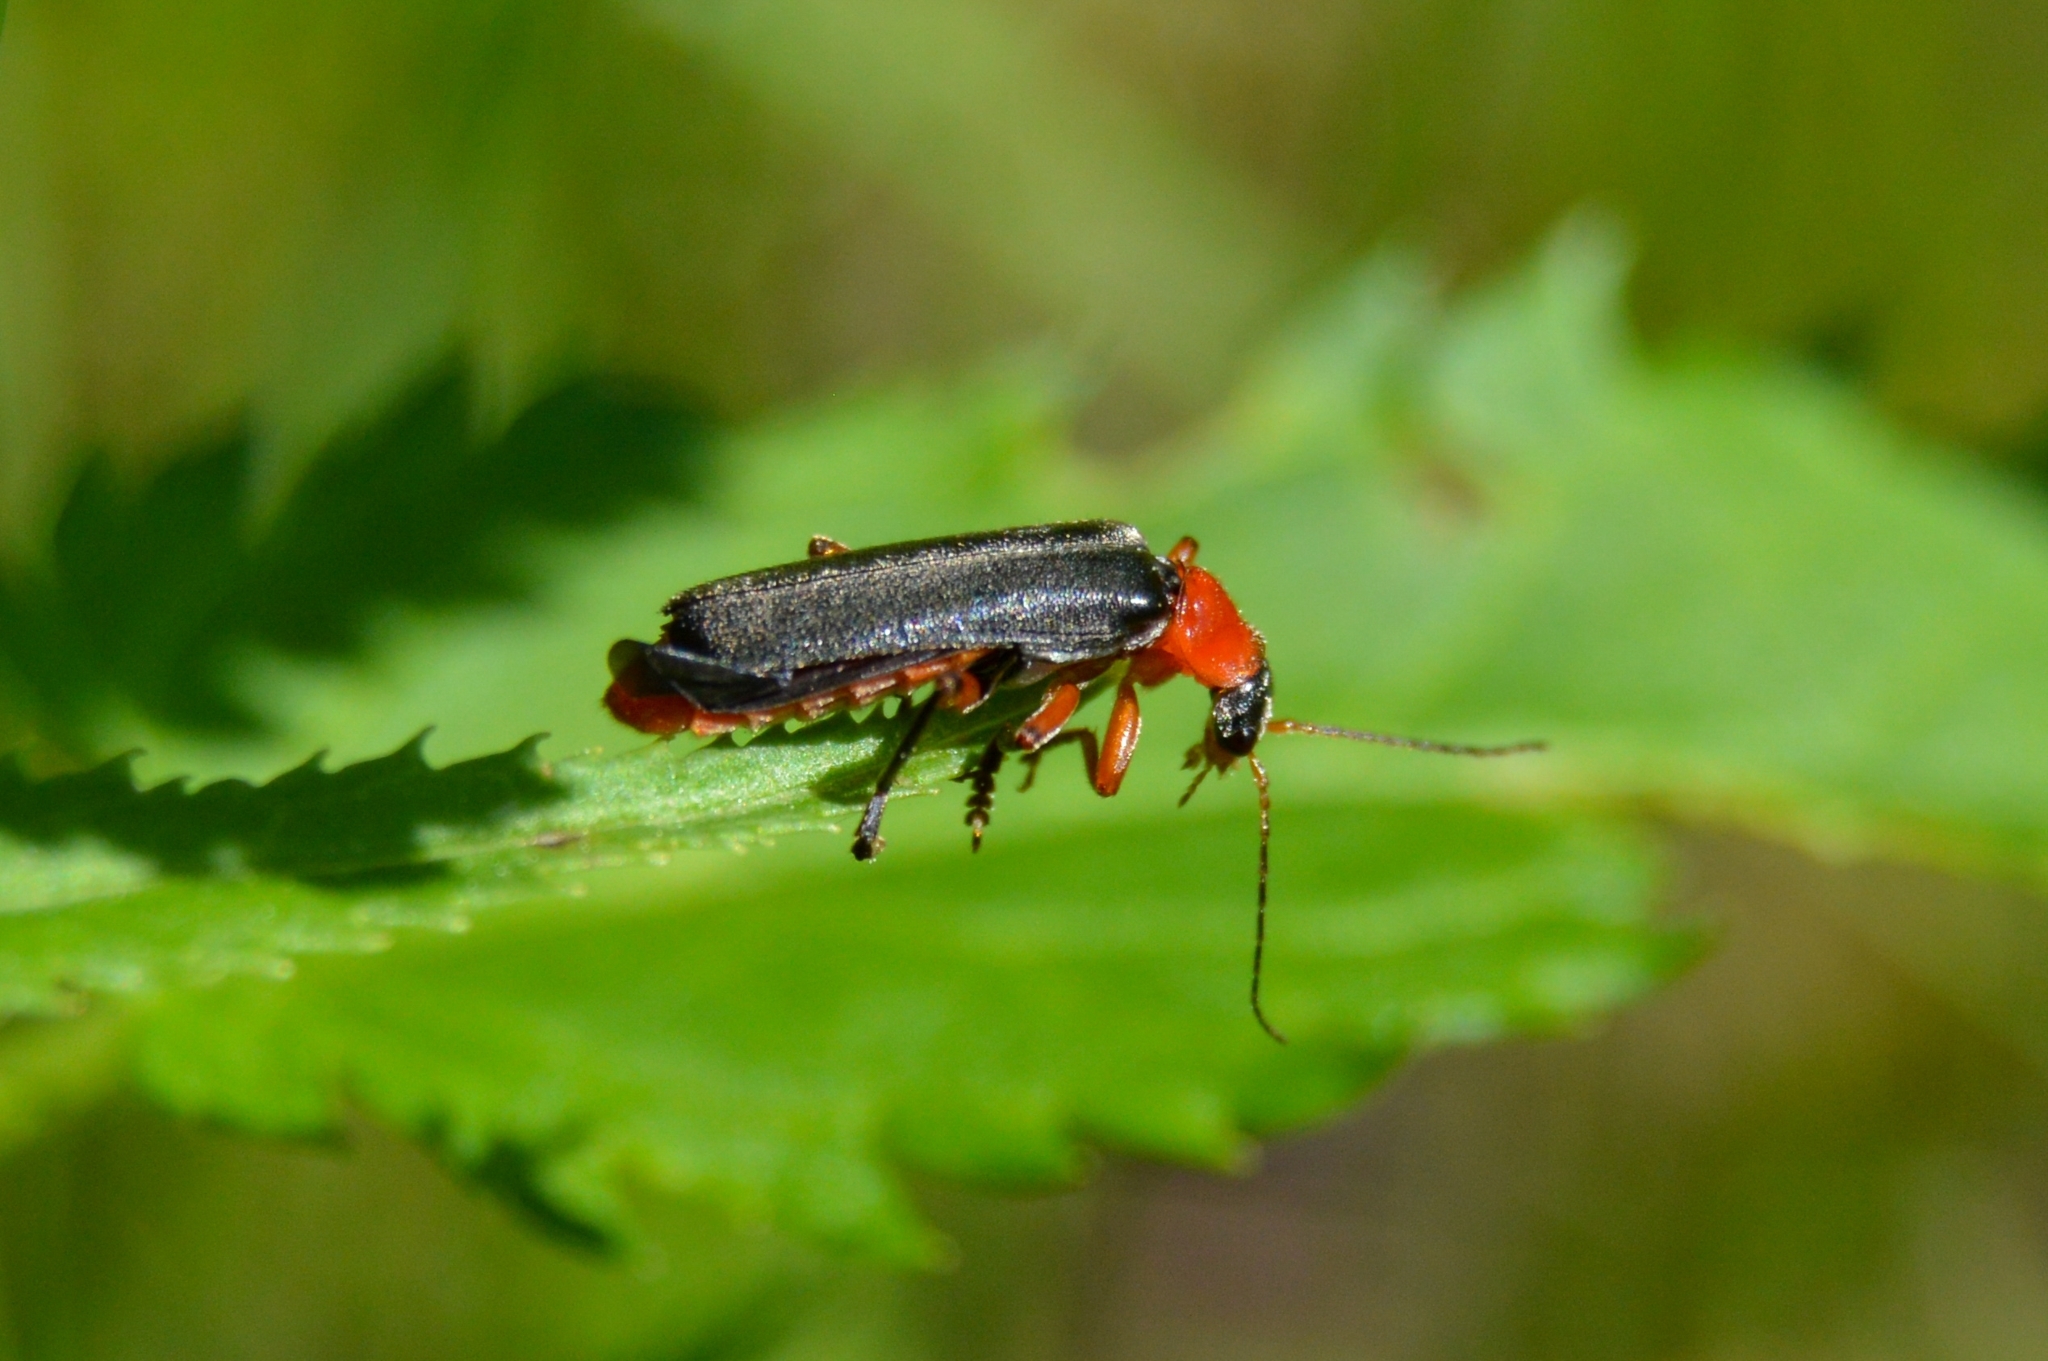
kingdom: Animalia
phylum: Arthropoda
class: Insecta
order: Coleoptera
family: Cantharidae
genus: Cantharis
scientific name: Cantharis pellucida
